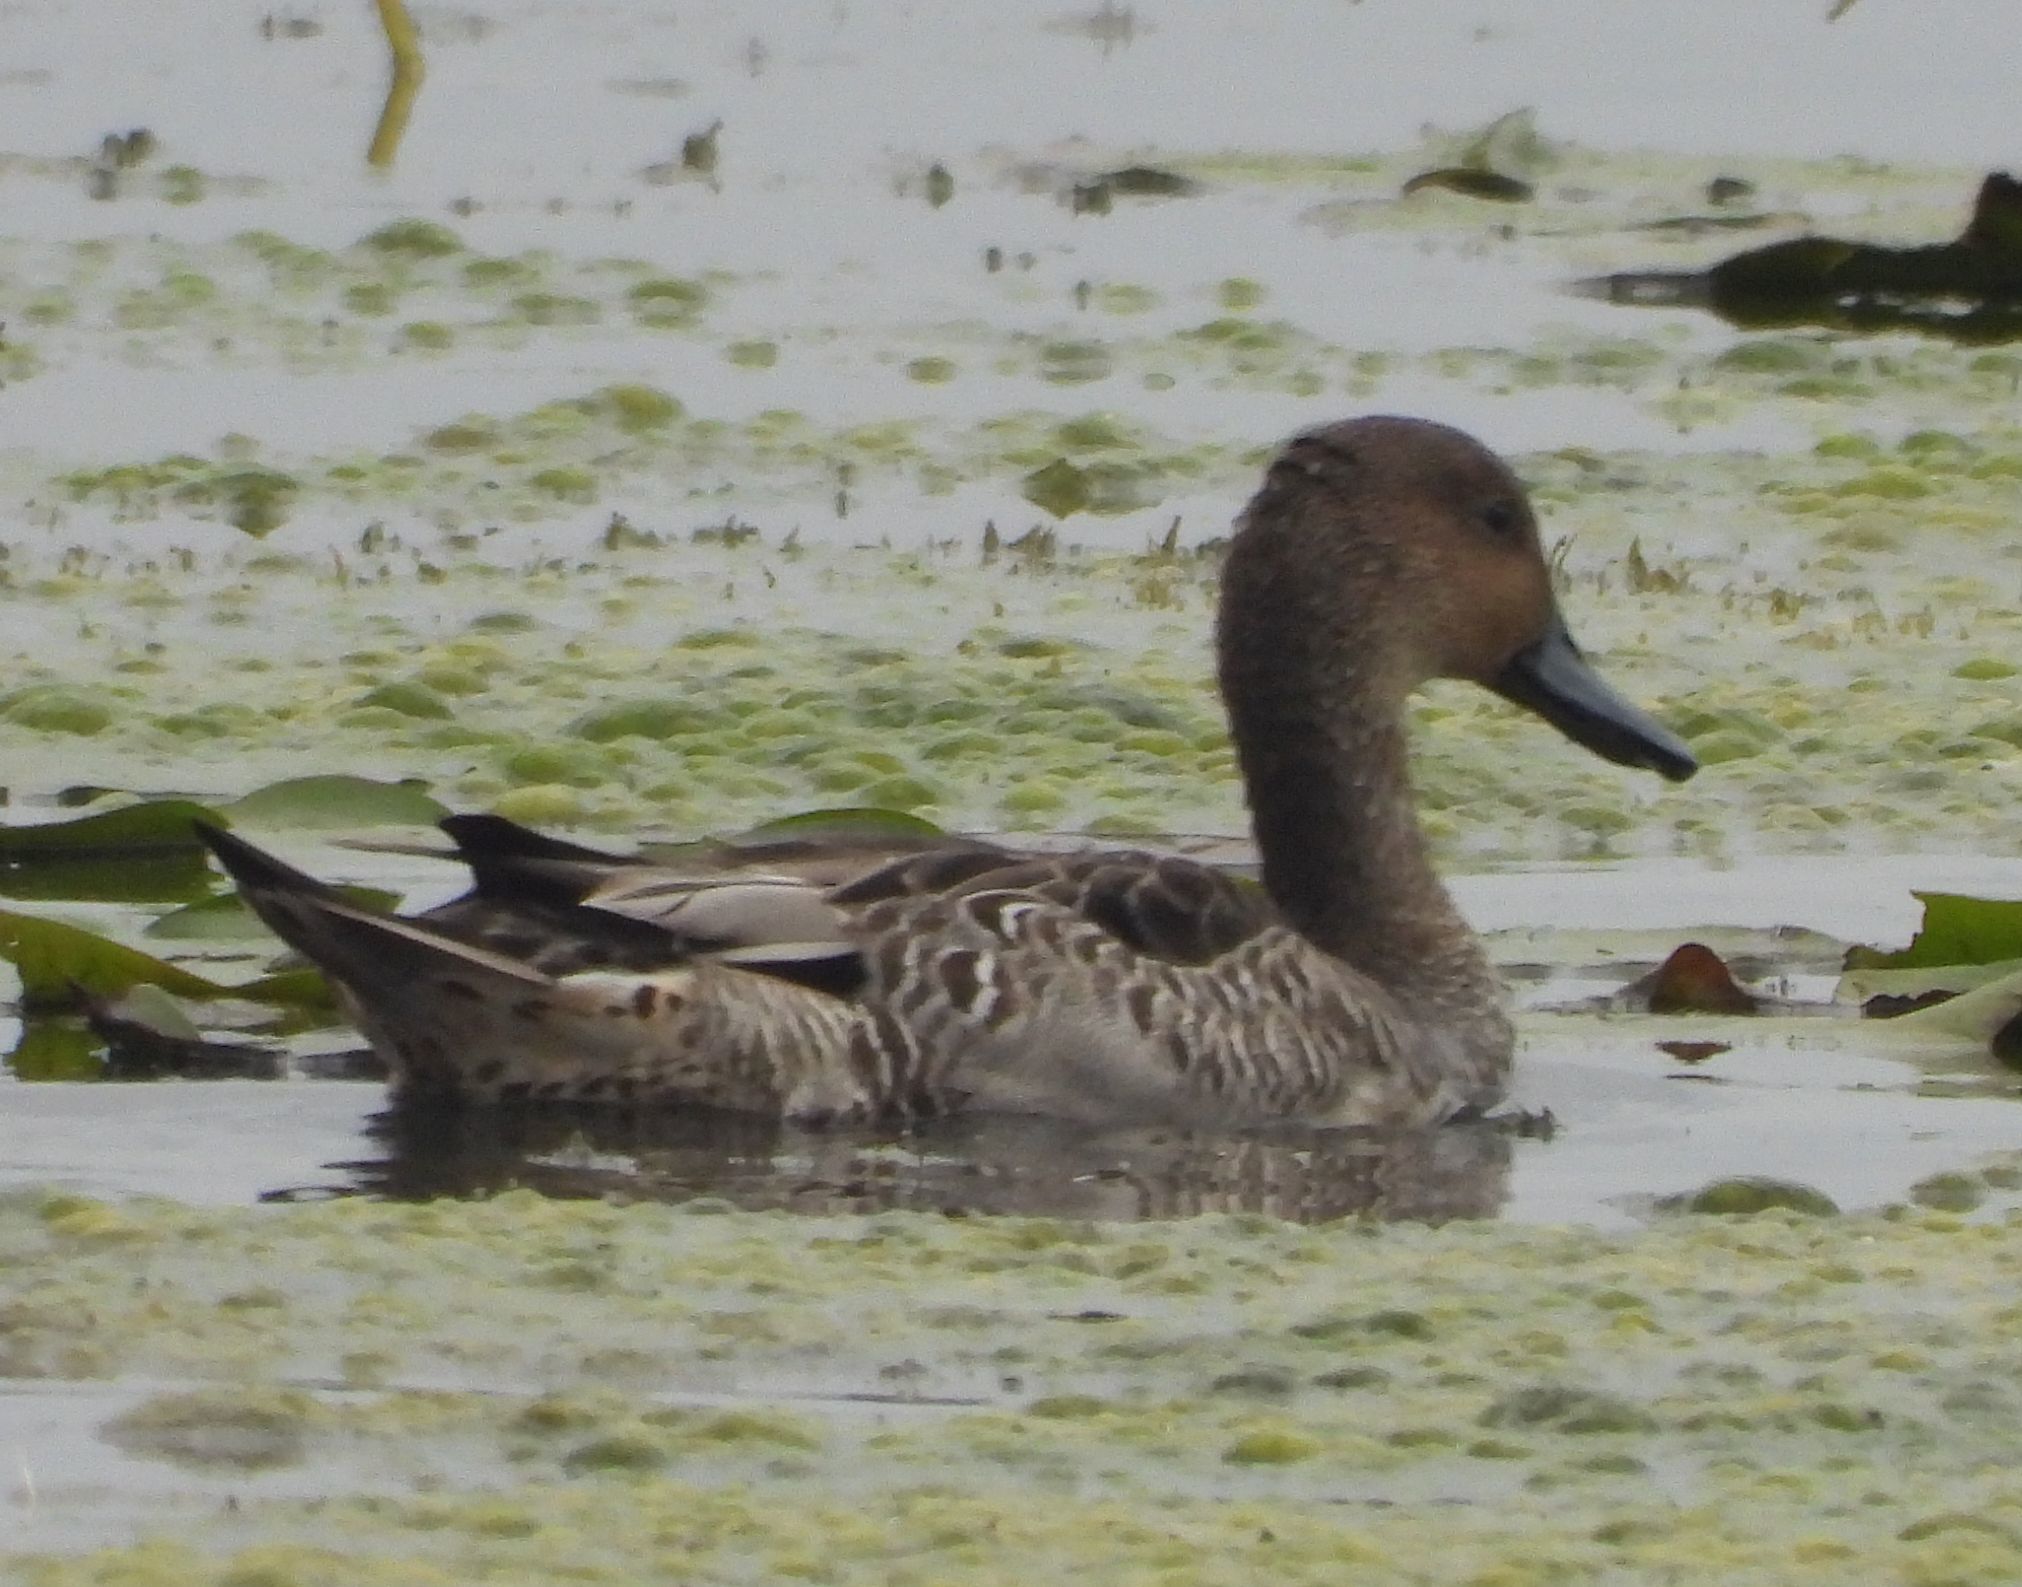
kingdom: Animalia
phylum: Chordata
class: Aves
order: Anseriformes
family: Anatidae
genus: Anas
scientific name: Anas acuta
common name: Northern pintail
